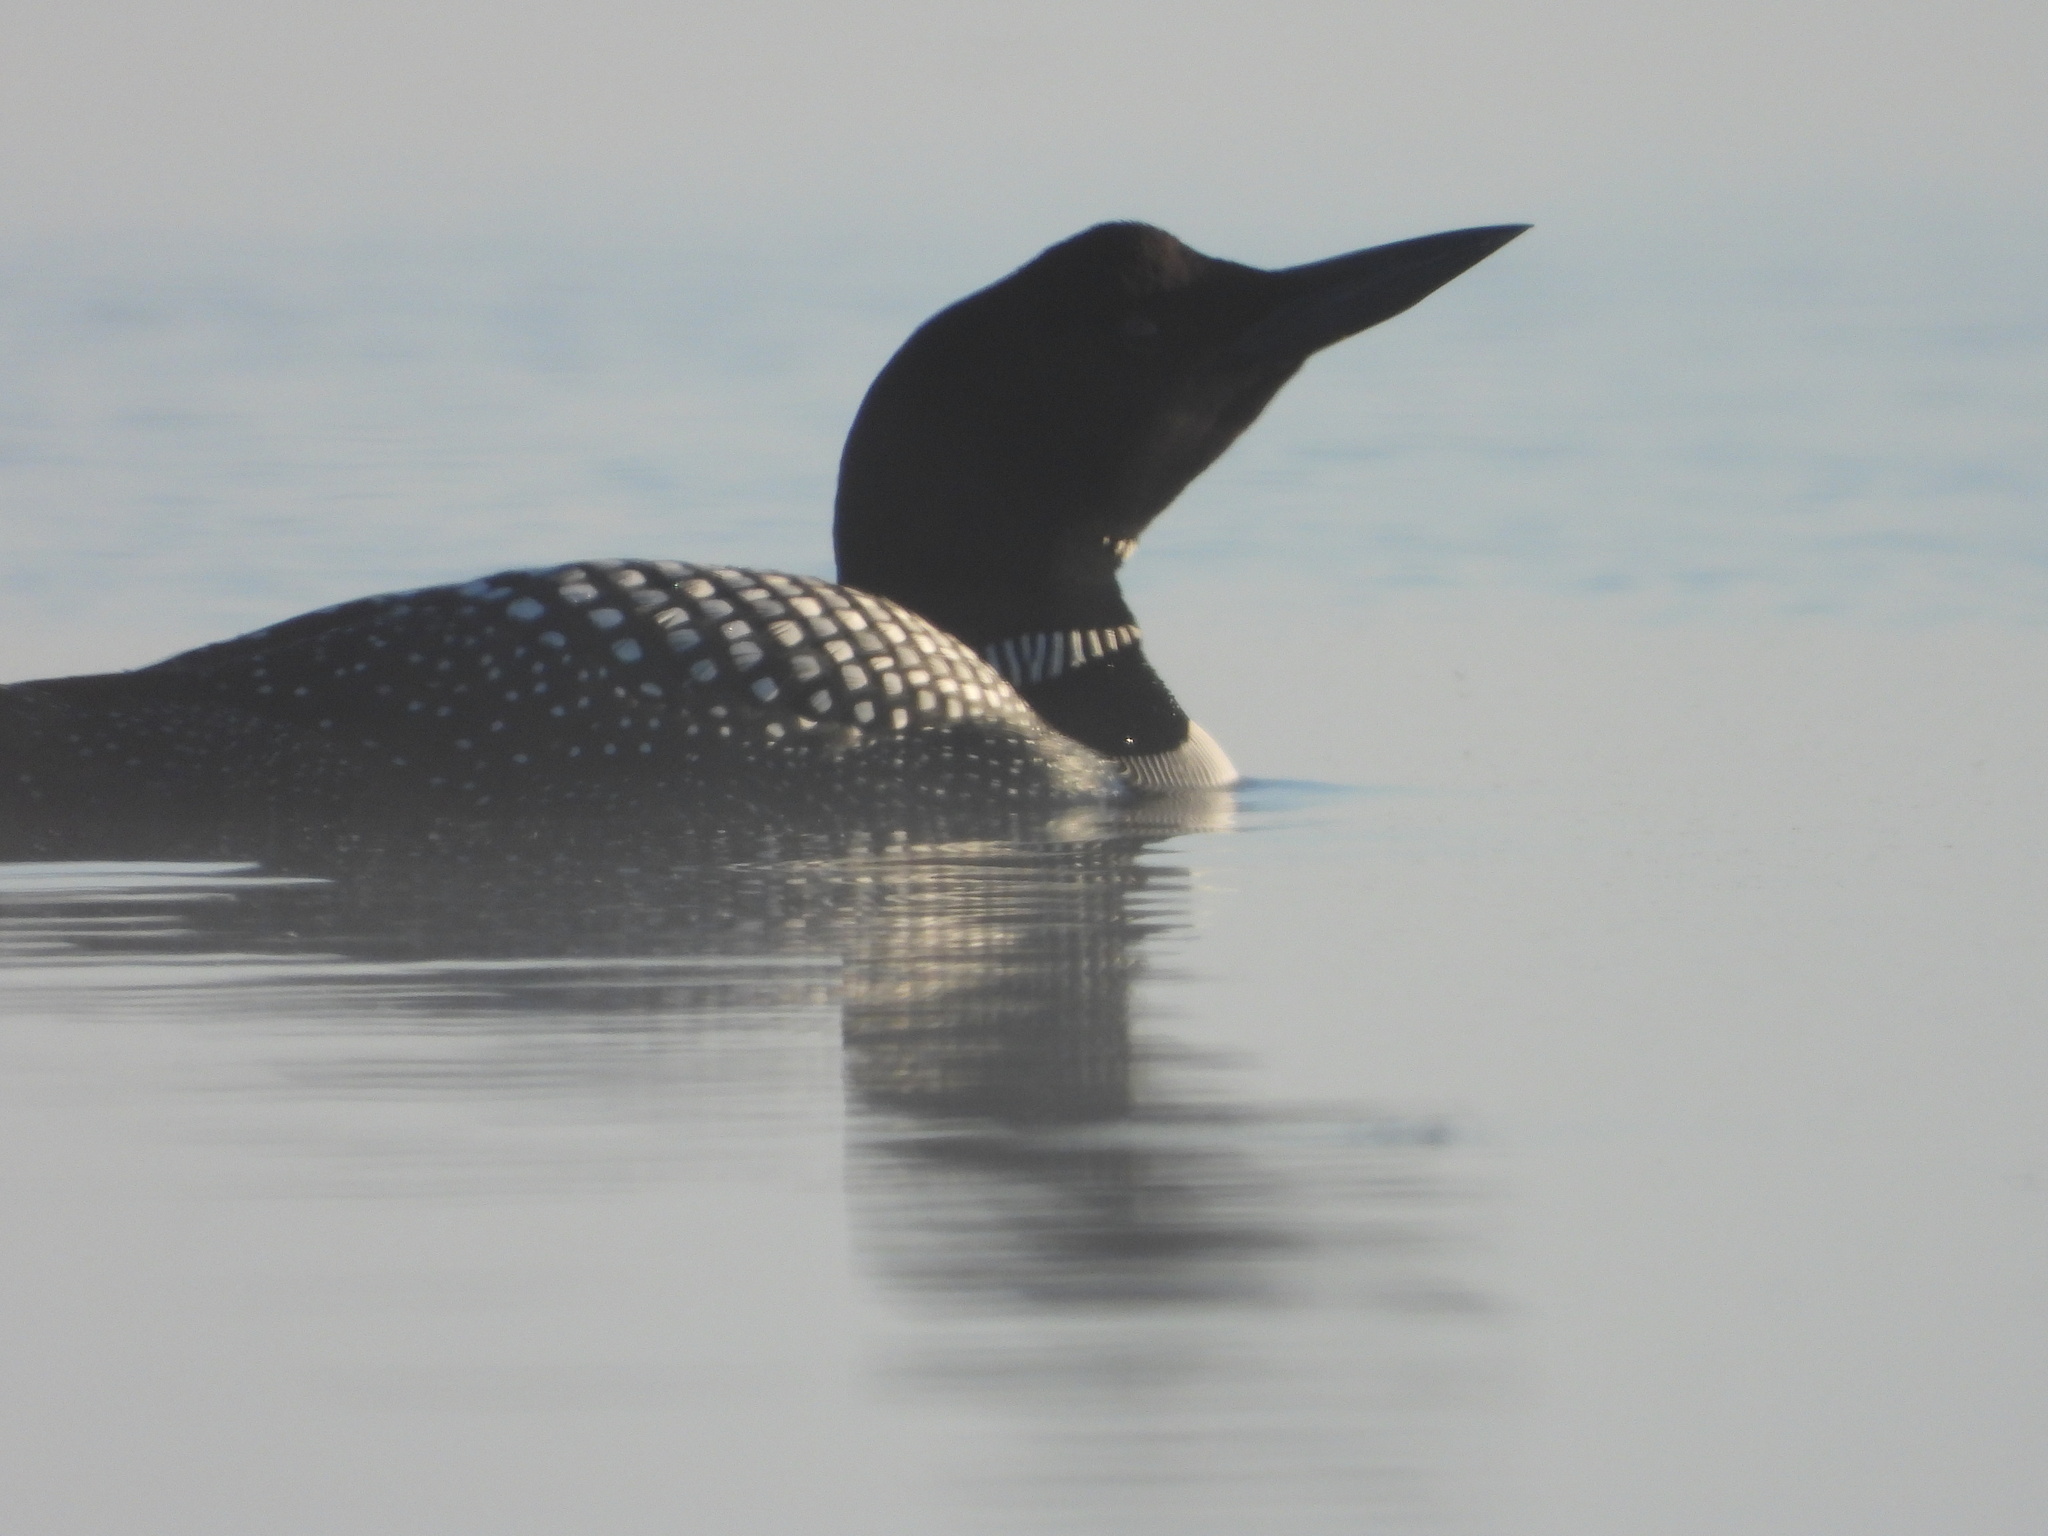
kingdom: Animalia
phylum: Chordata
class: Aves
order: Gaviiformes
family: Gaviidae
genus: Gavia
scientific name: Gavia immer
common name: Common loon
